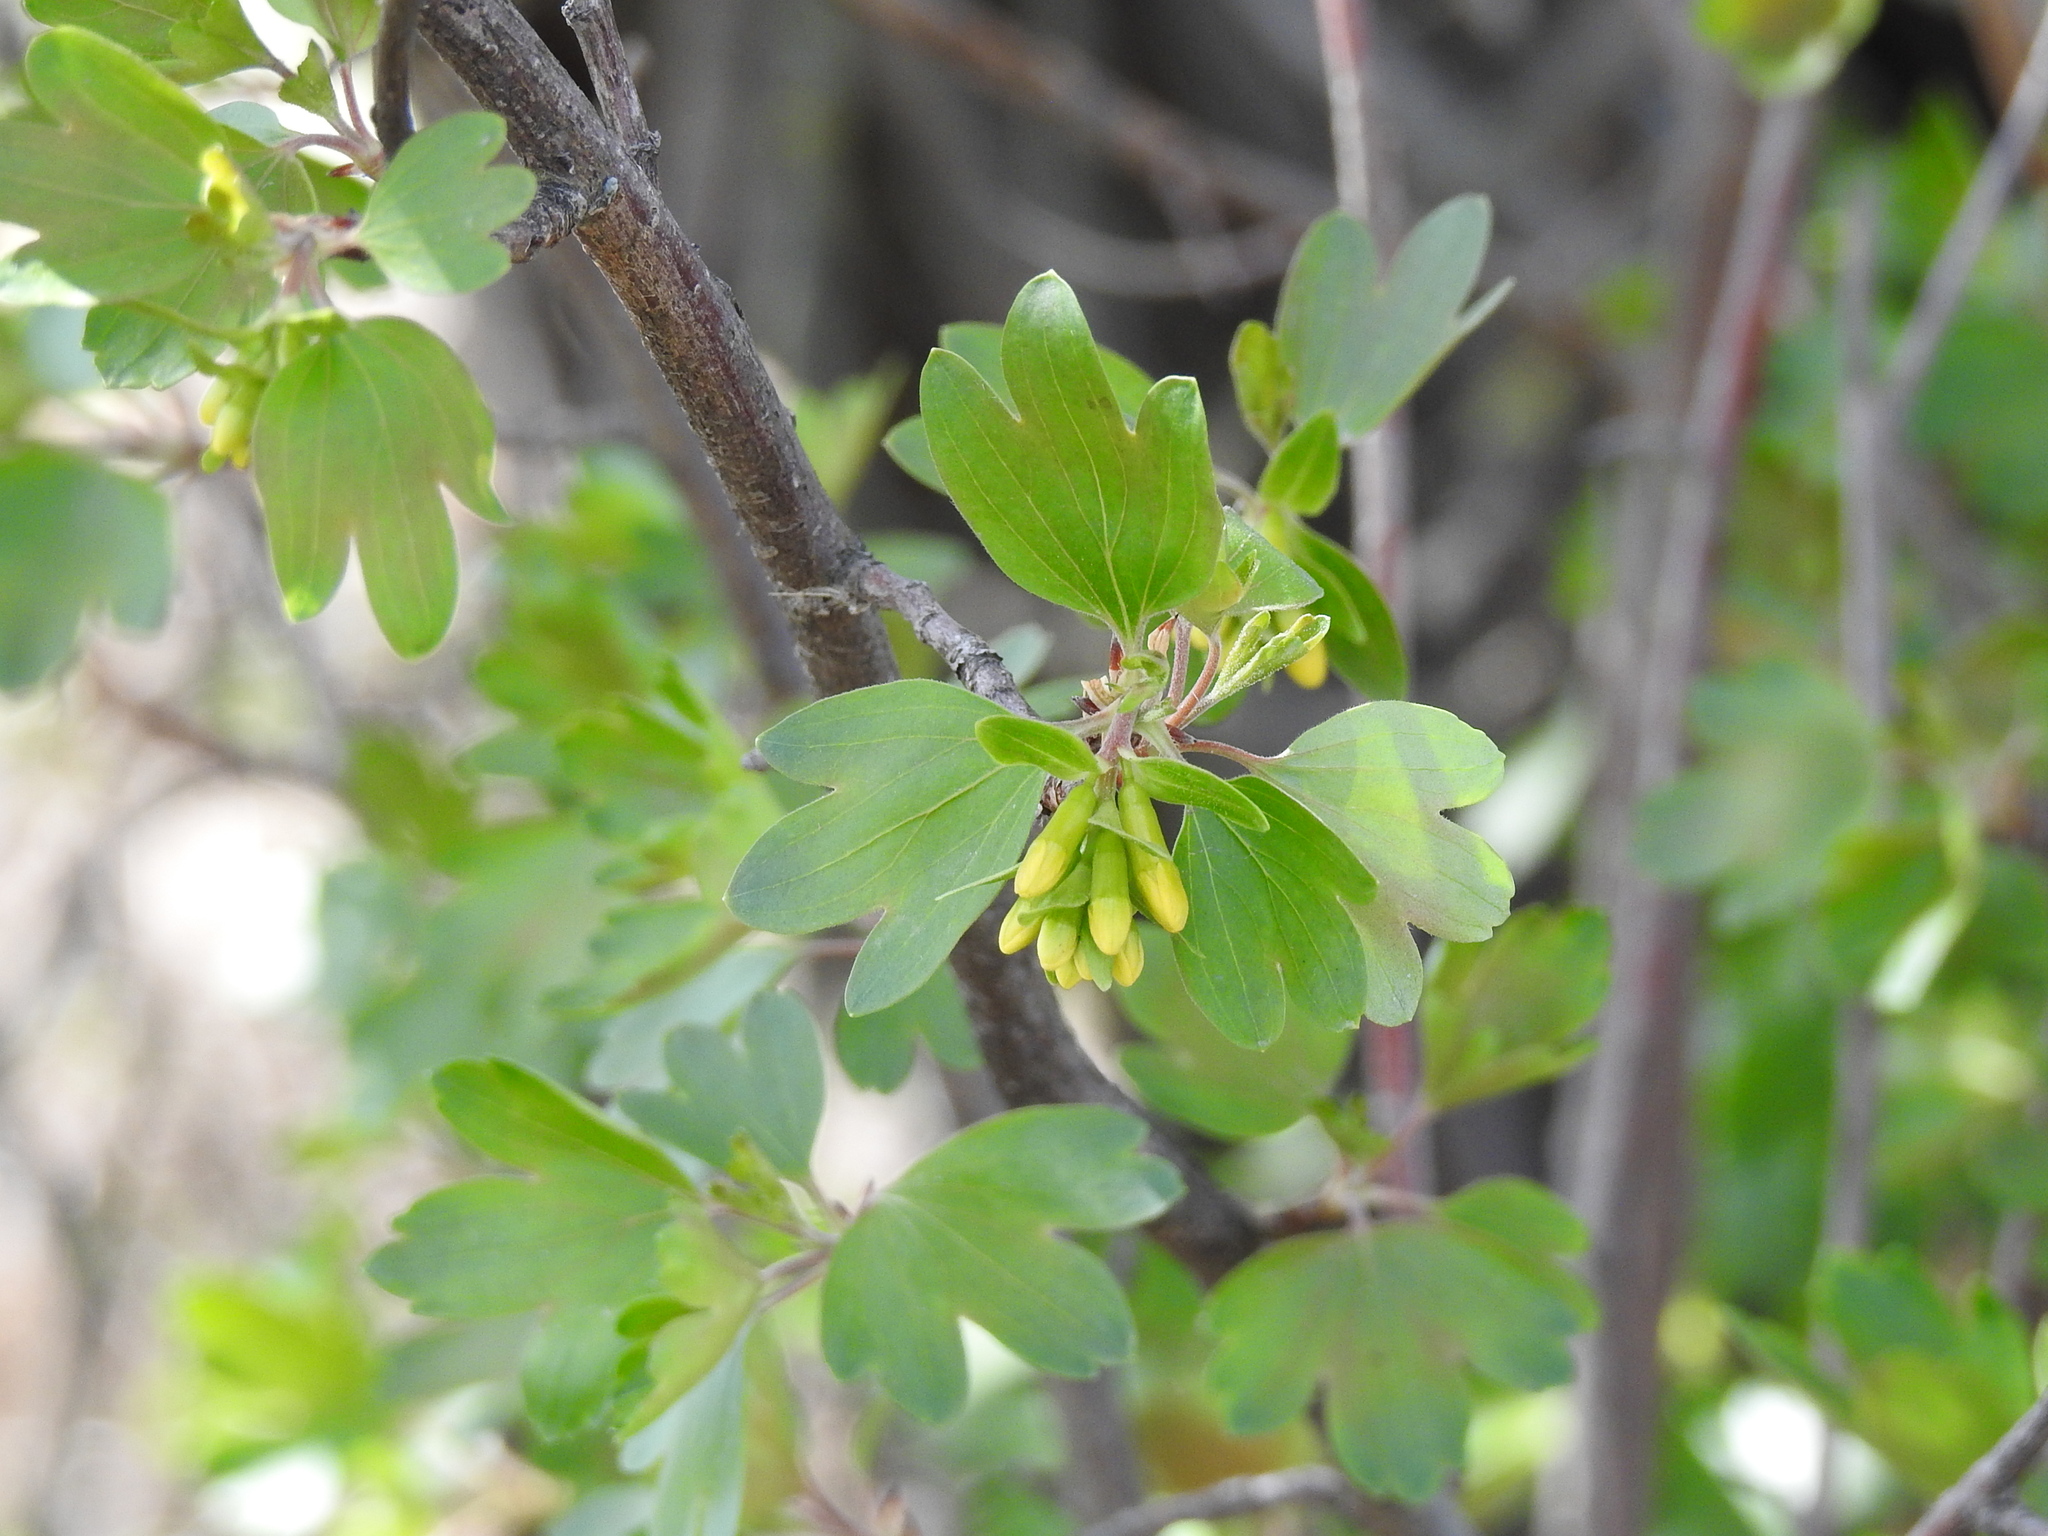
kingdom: Plantae
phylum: Tracheophyta
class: Magnoliopsida
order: Saxifragales
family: Grossulariaceae
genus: Ribes
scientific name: Ribes aureum
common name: Golden currant
